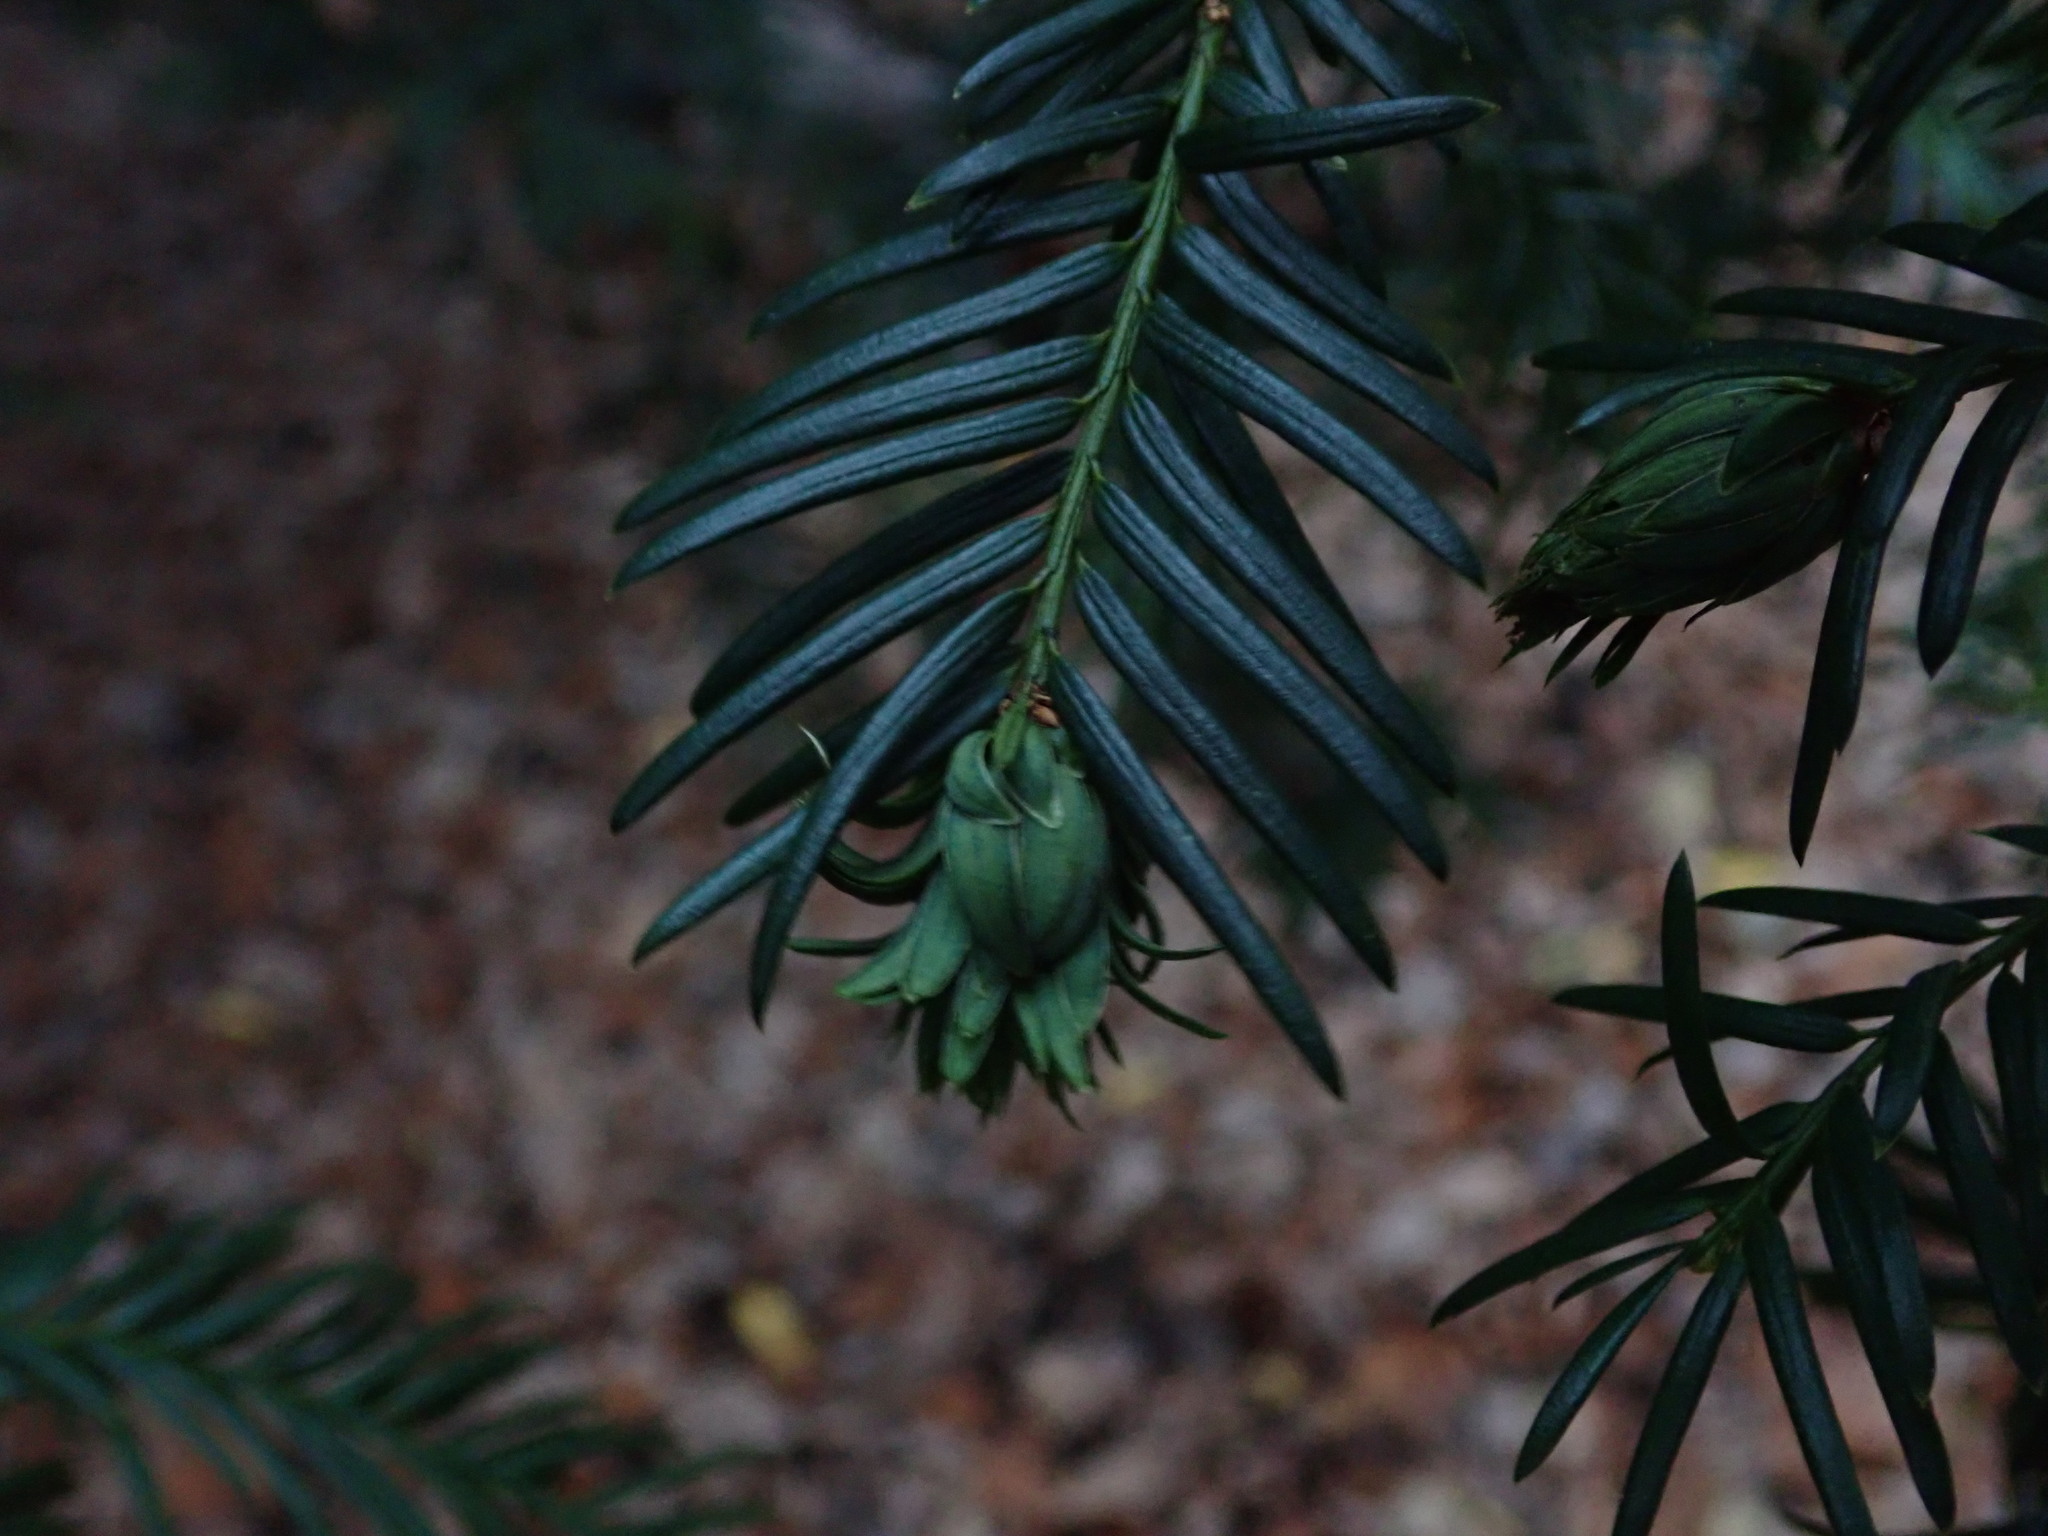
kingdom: Animalia
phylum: Arthropoda
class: Insecta
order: Diptera
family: Cecidomyiidae
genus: Taxomyia
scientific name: Taxomyia taxi
